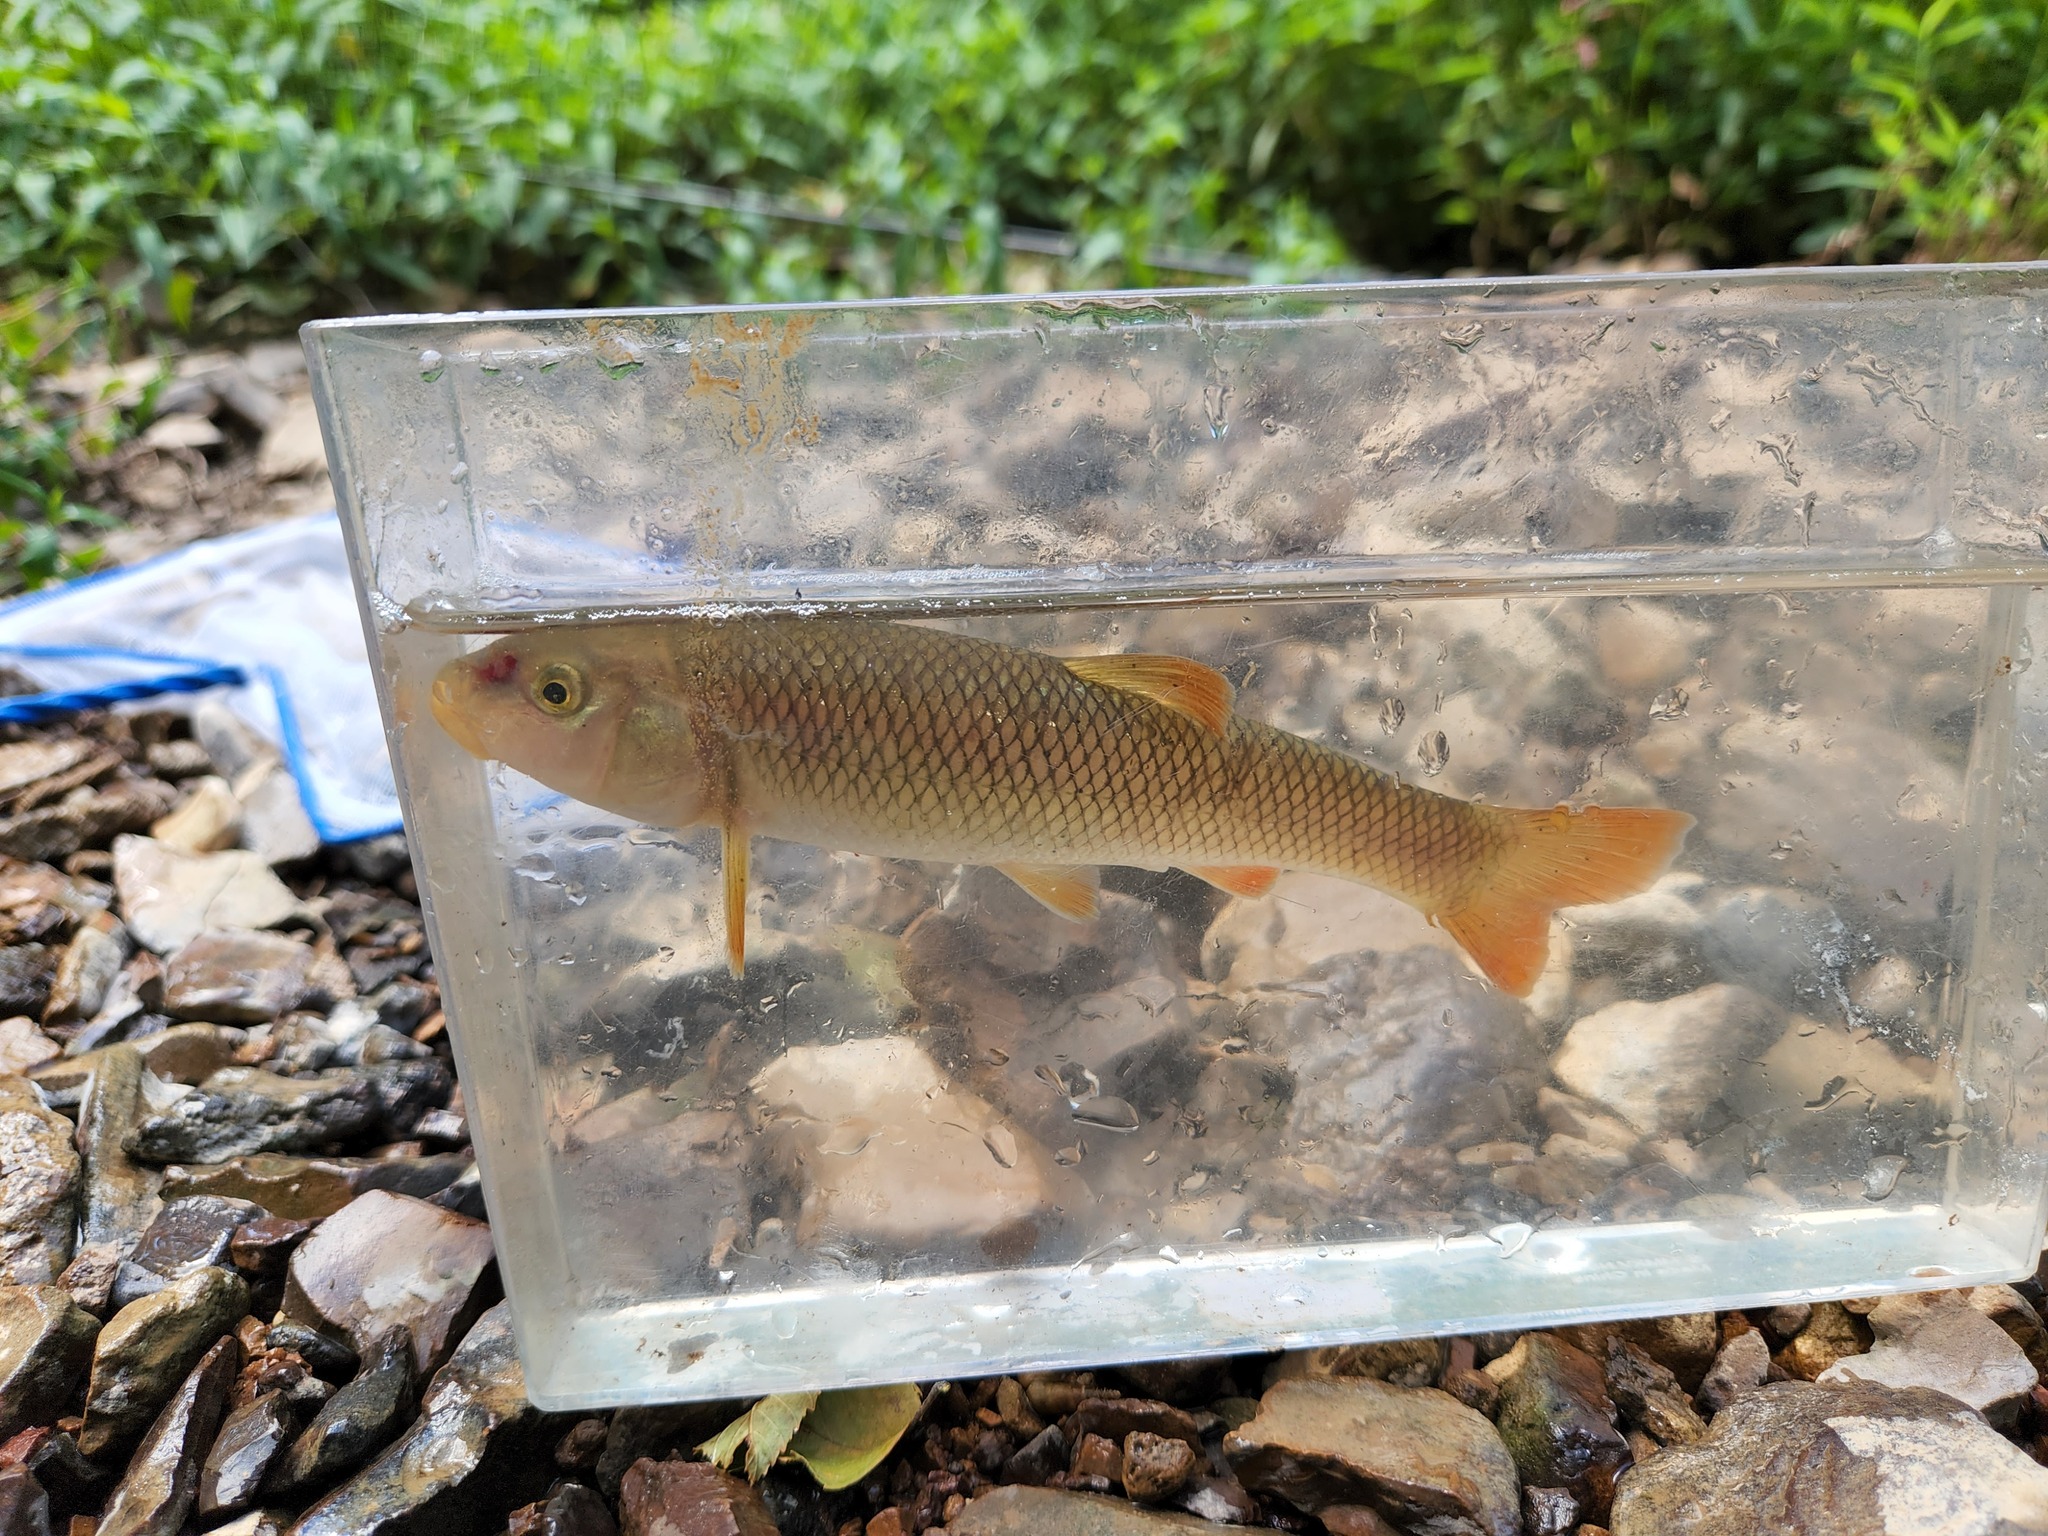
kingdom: Animalia
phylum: Chordata
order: Cypriniformes
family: Cyprinidae
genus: Nocomis
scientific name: Nocomis effusus
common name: Redtail chub
